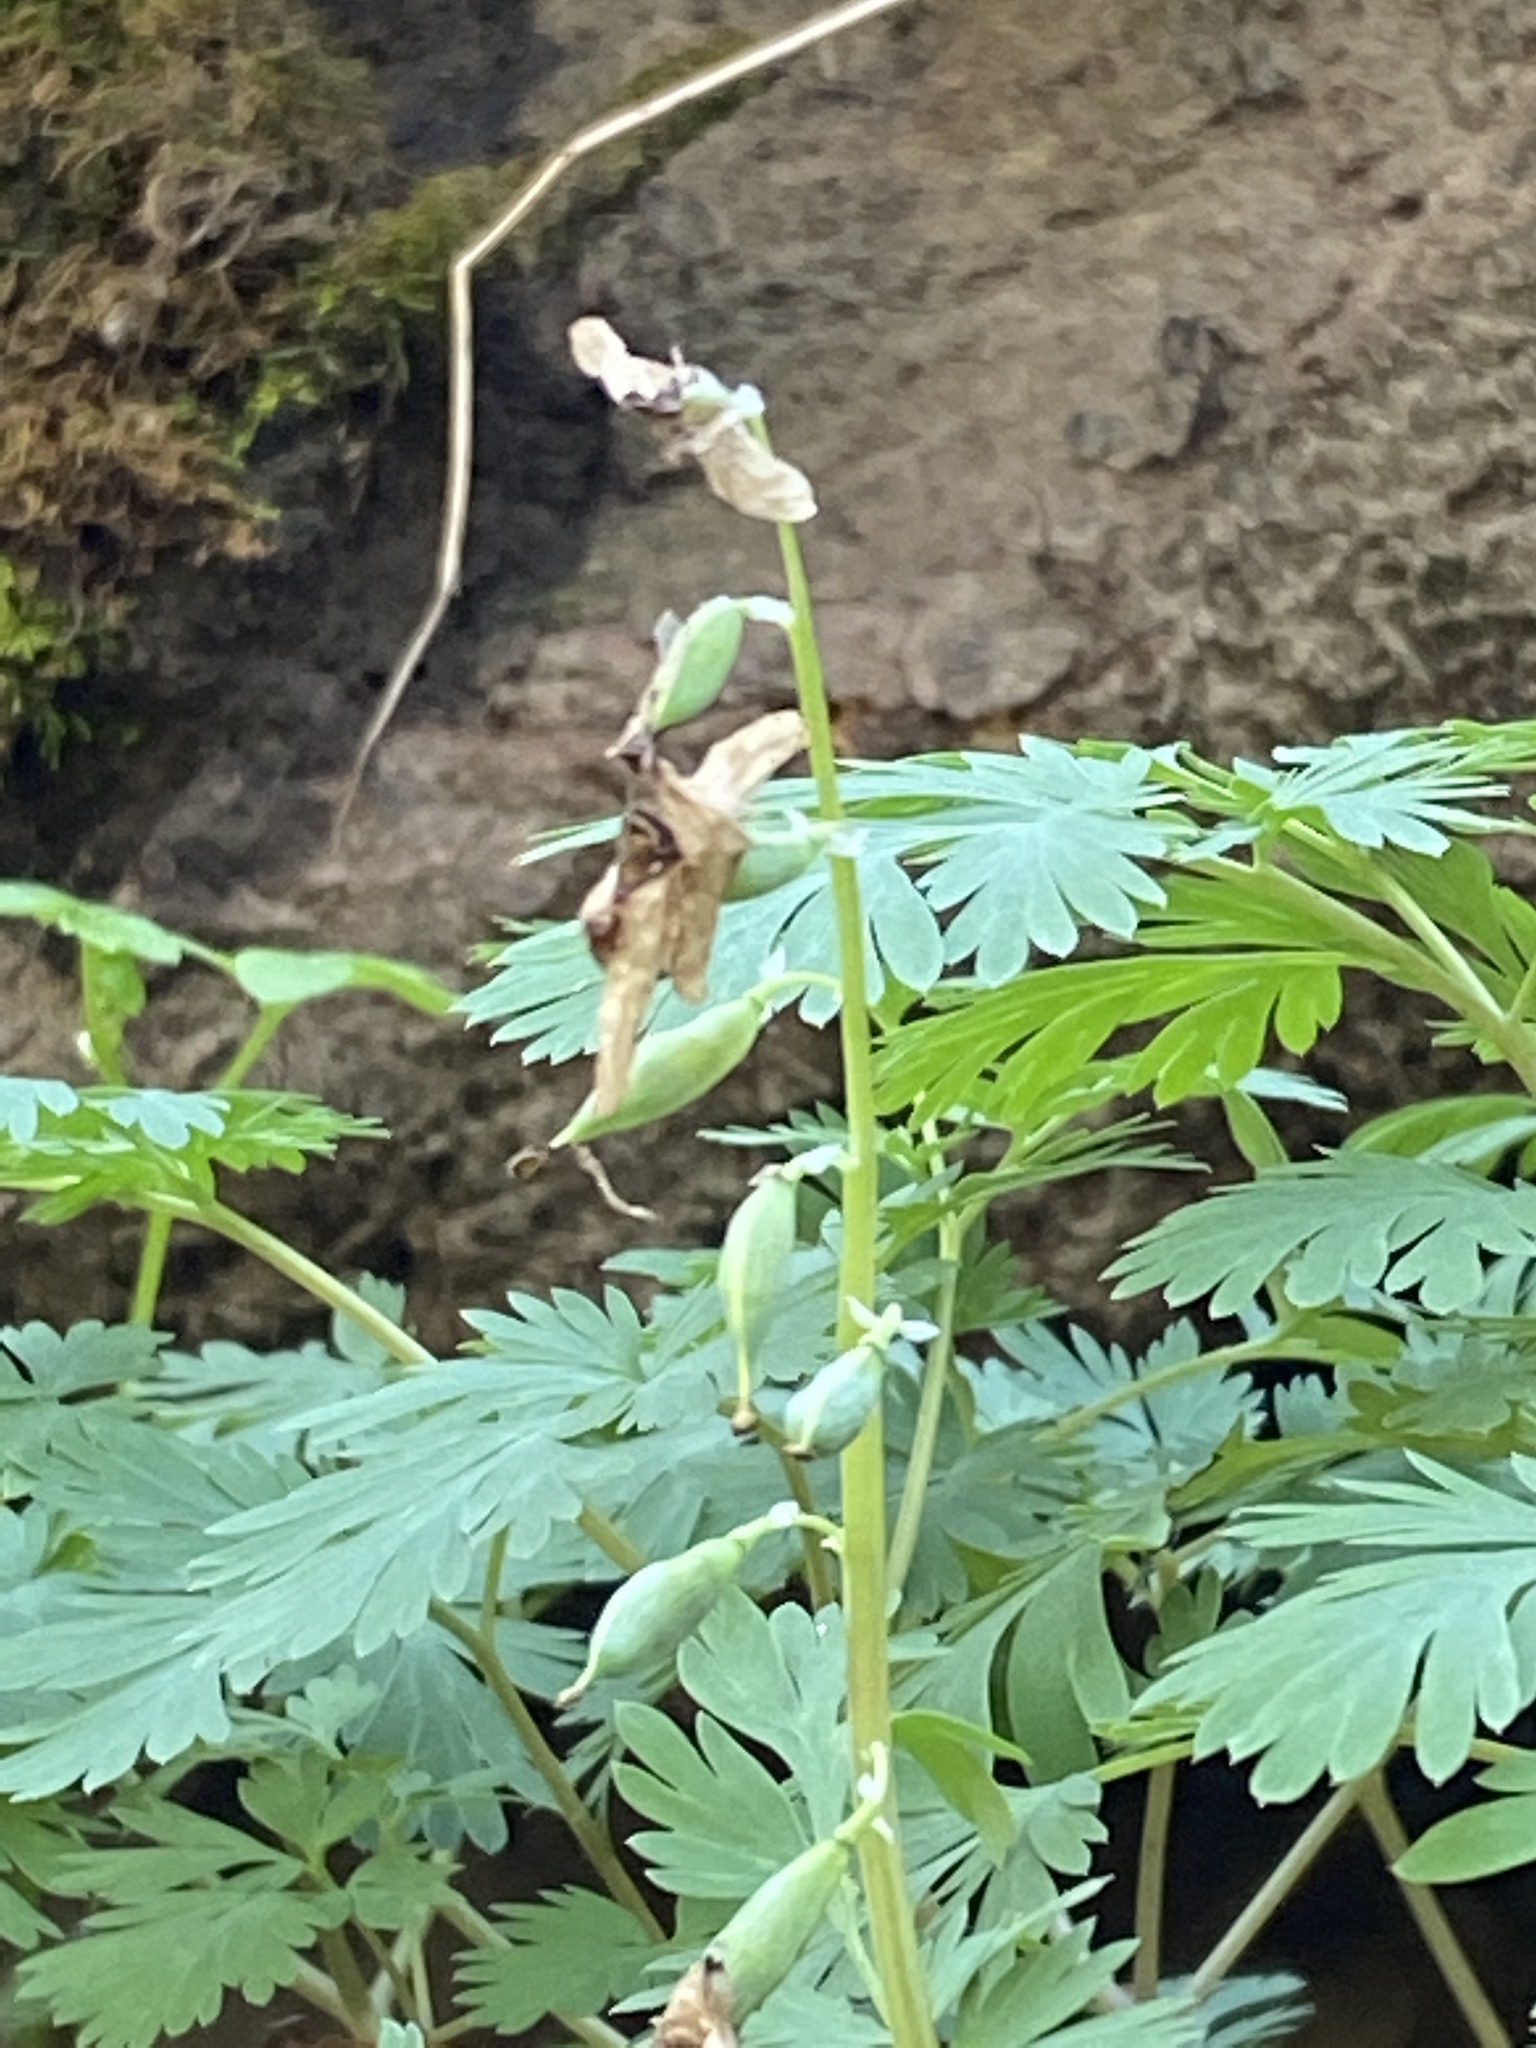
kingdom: Plantae
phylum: Tracheophyta
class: Magnoliopsida
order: Ranunculales
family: Papaveraceae
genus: Dicentra
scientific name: Dicentra cucullaria
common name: Dutchman's breeches
